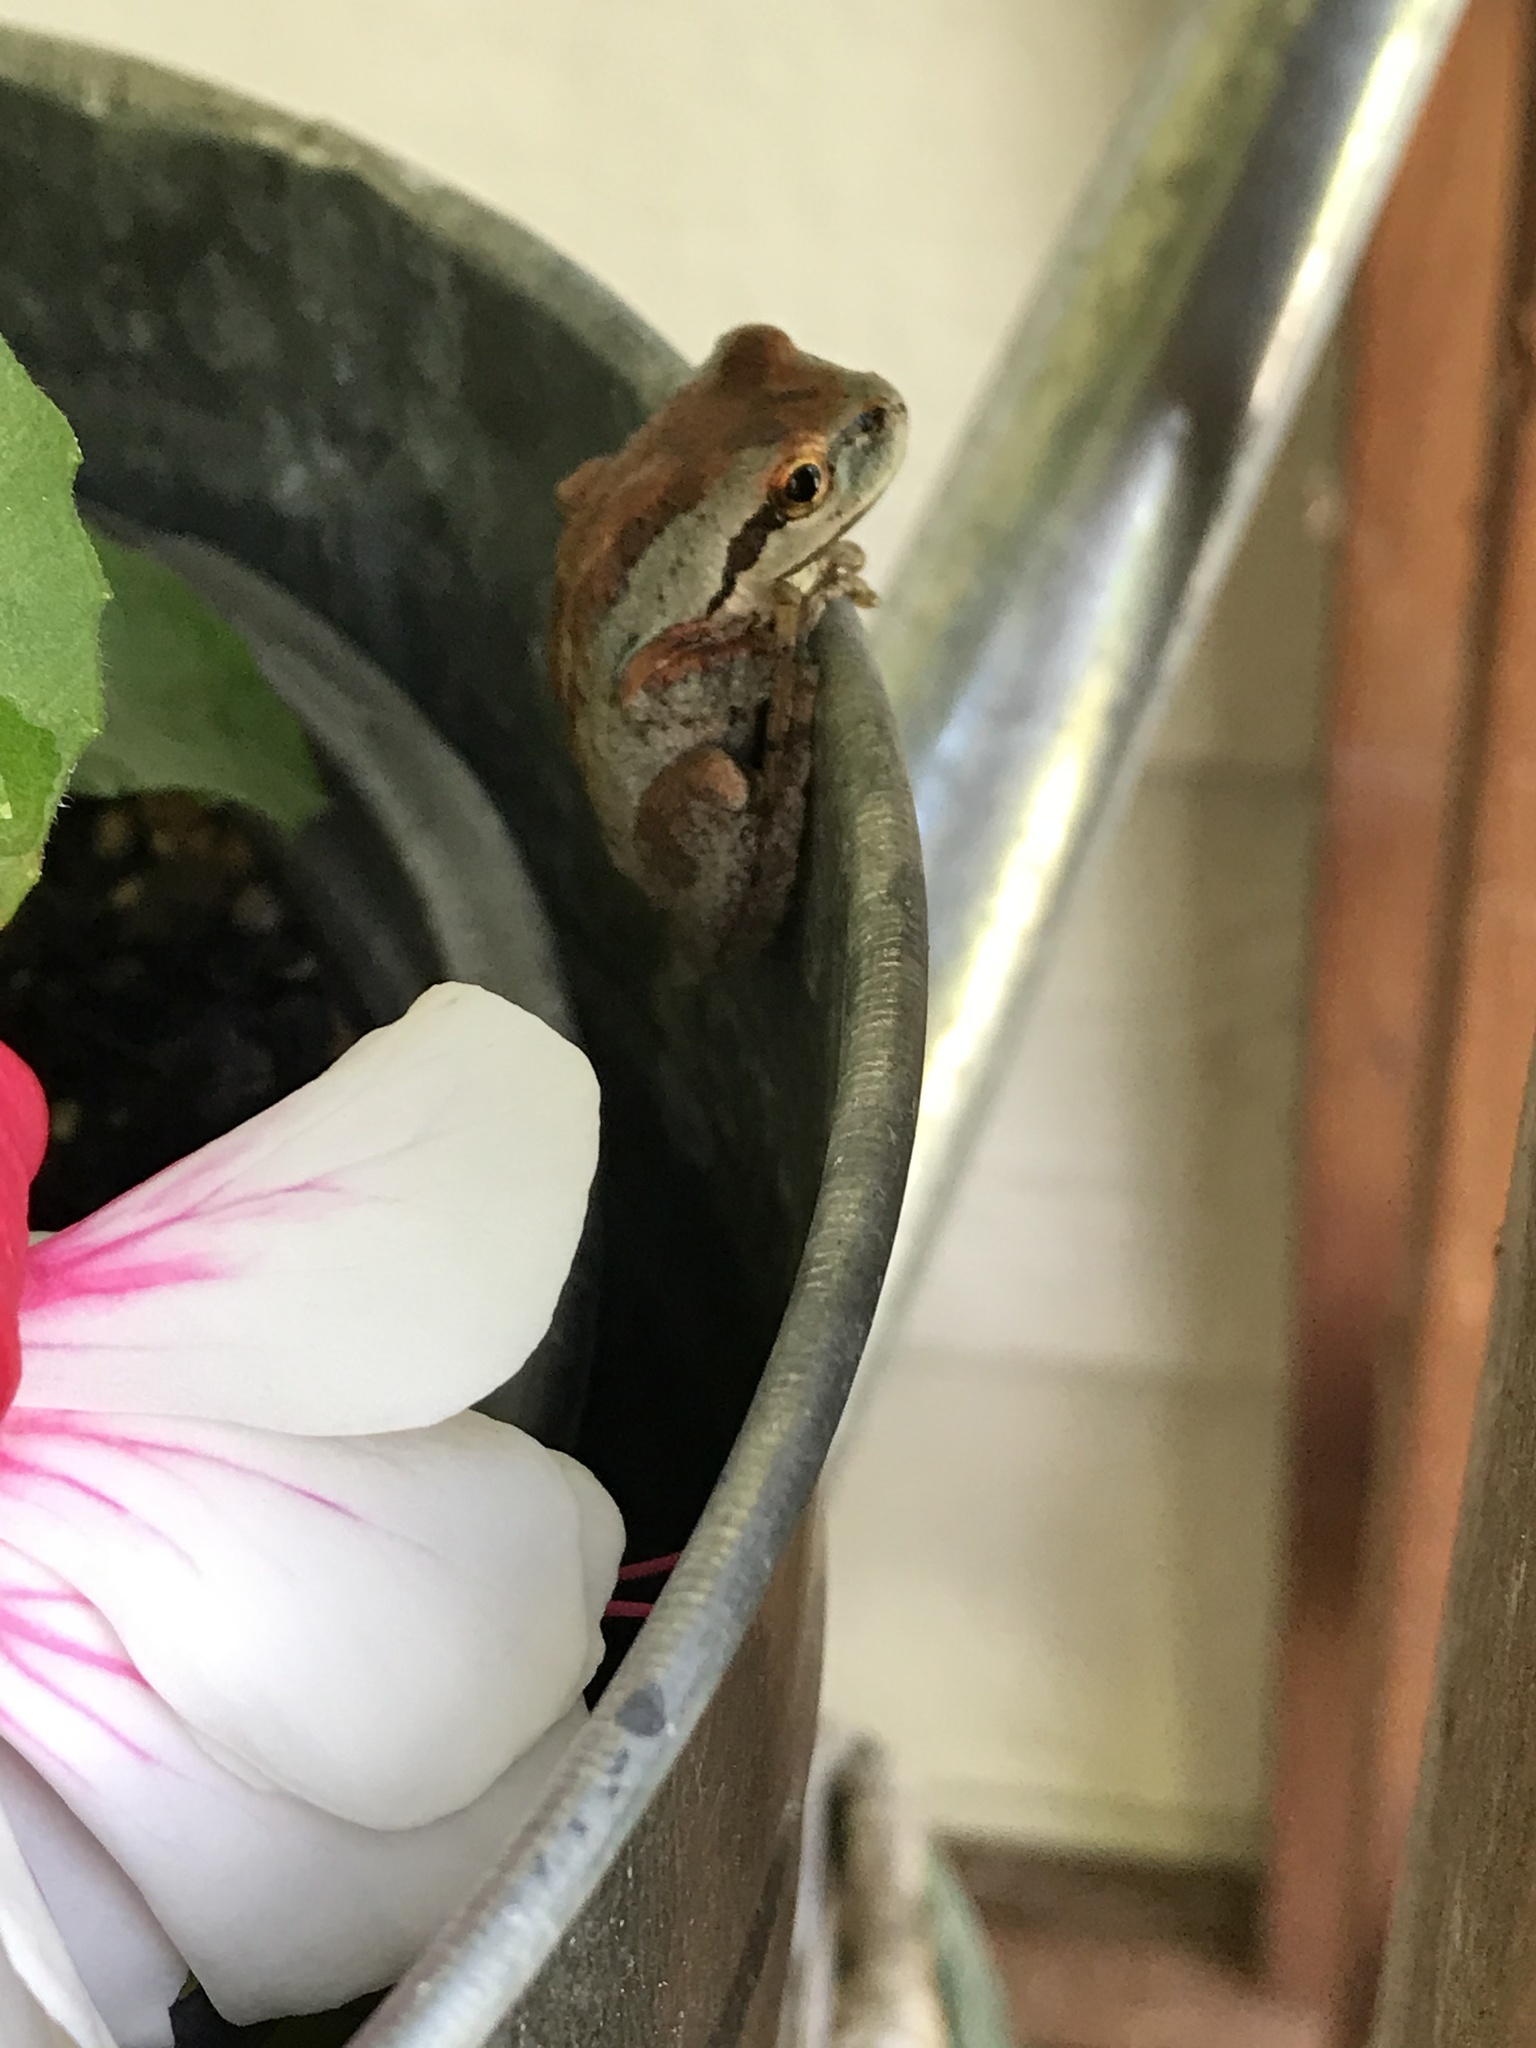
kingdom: Animalia
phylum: Chordata
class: Amphibia
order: Anura
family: Hylidae
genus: Pseudacris
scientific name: Pseudacris regilla
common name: Pacific chorus frog
